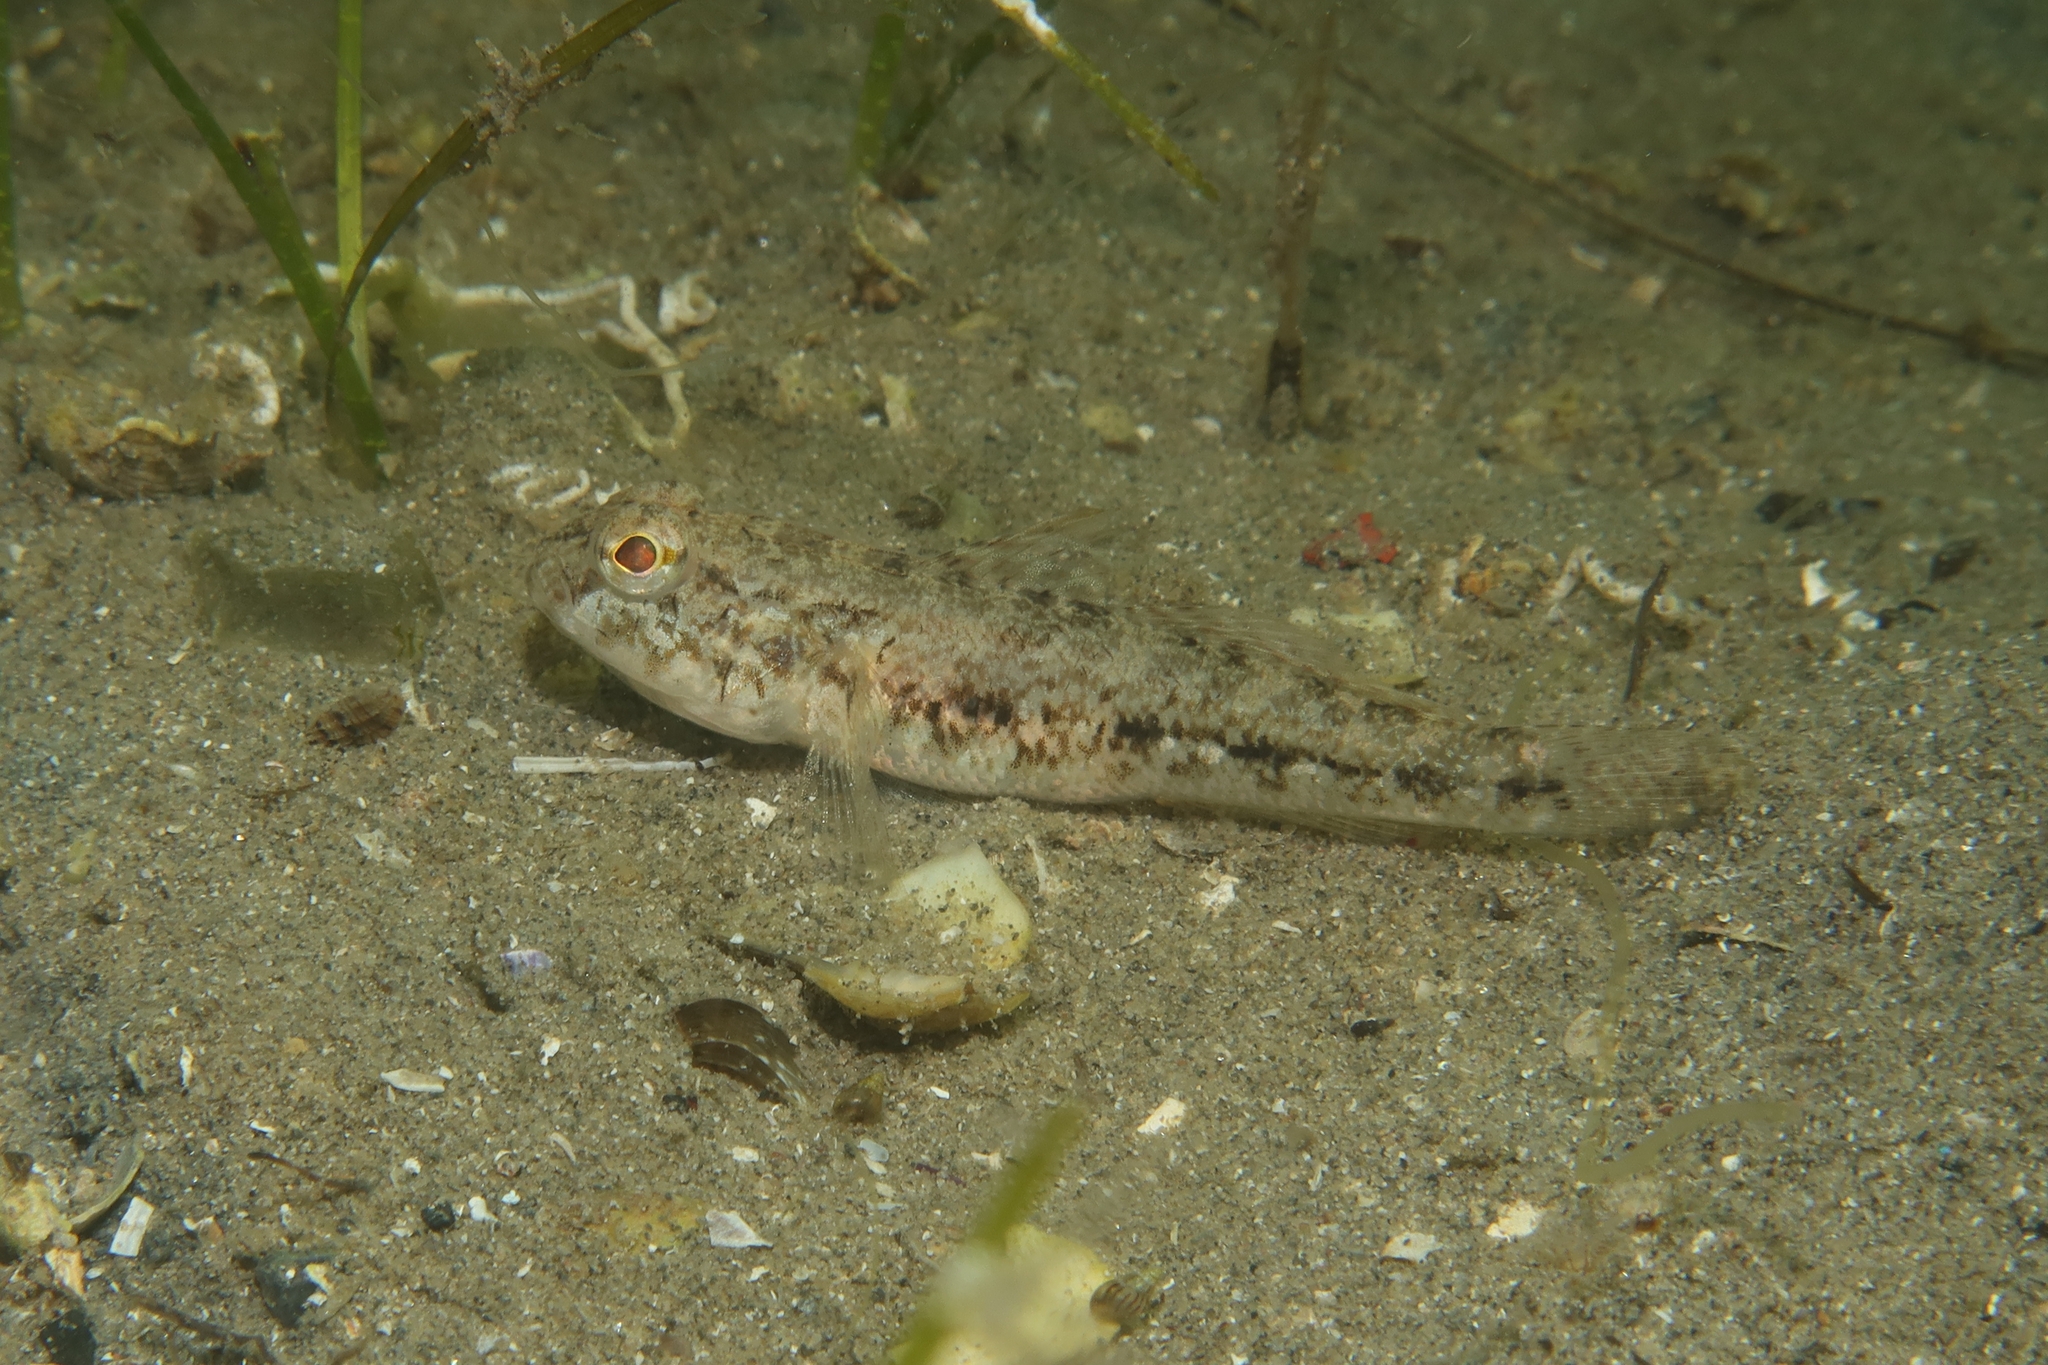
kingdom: Animalia
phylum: Chordata
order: Perciformes
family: Gobiidae
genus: Gobius
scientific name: Gobius niger
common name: Black goby
